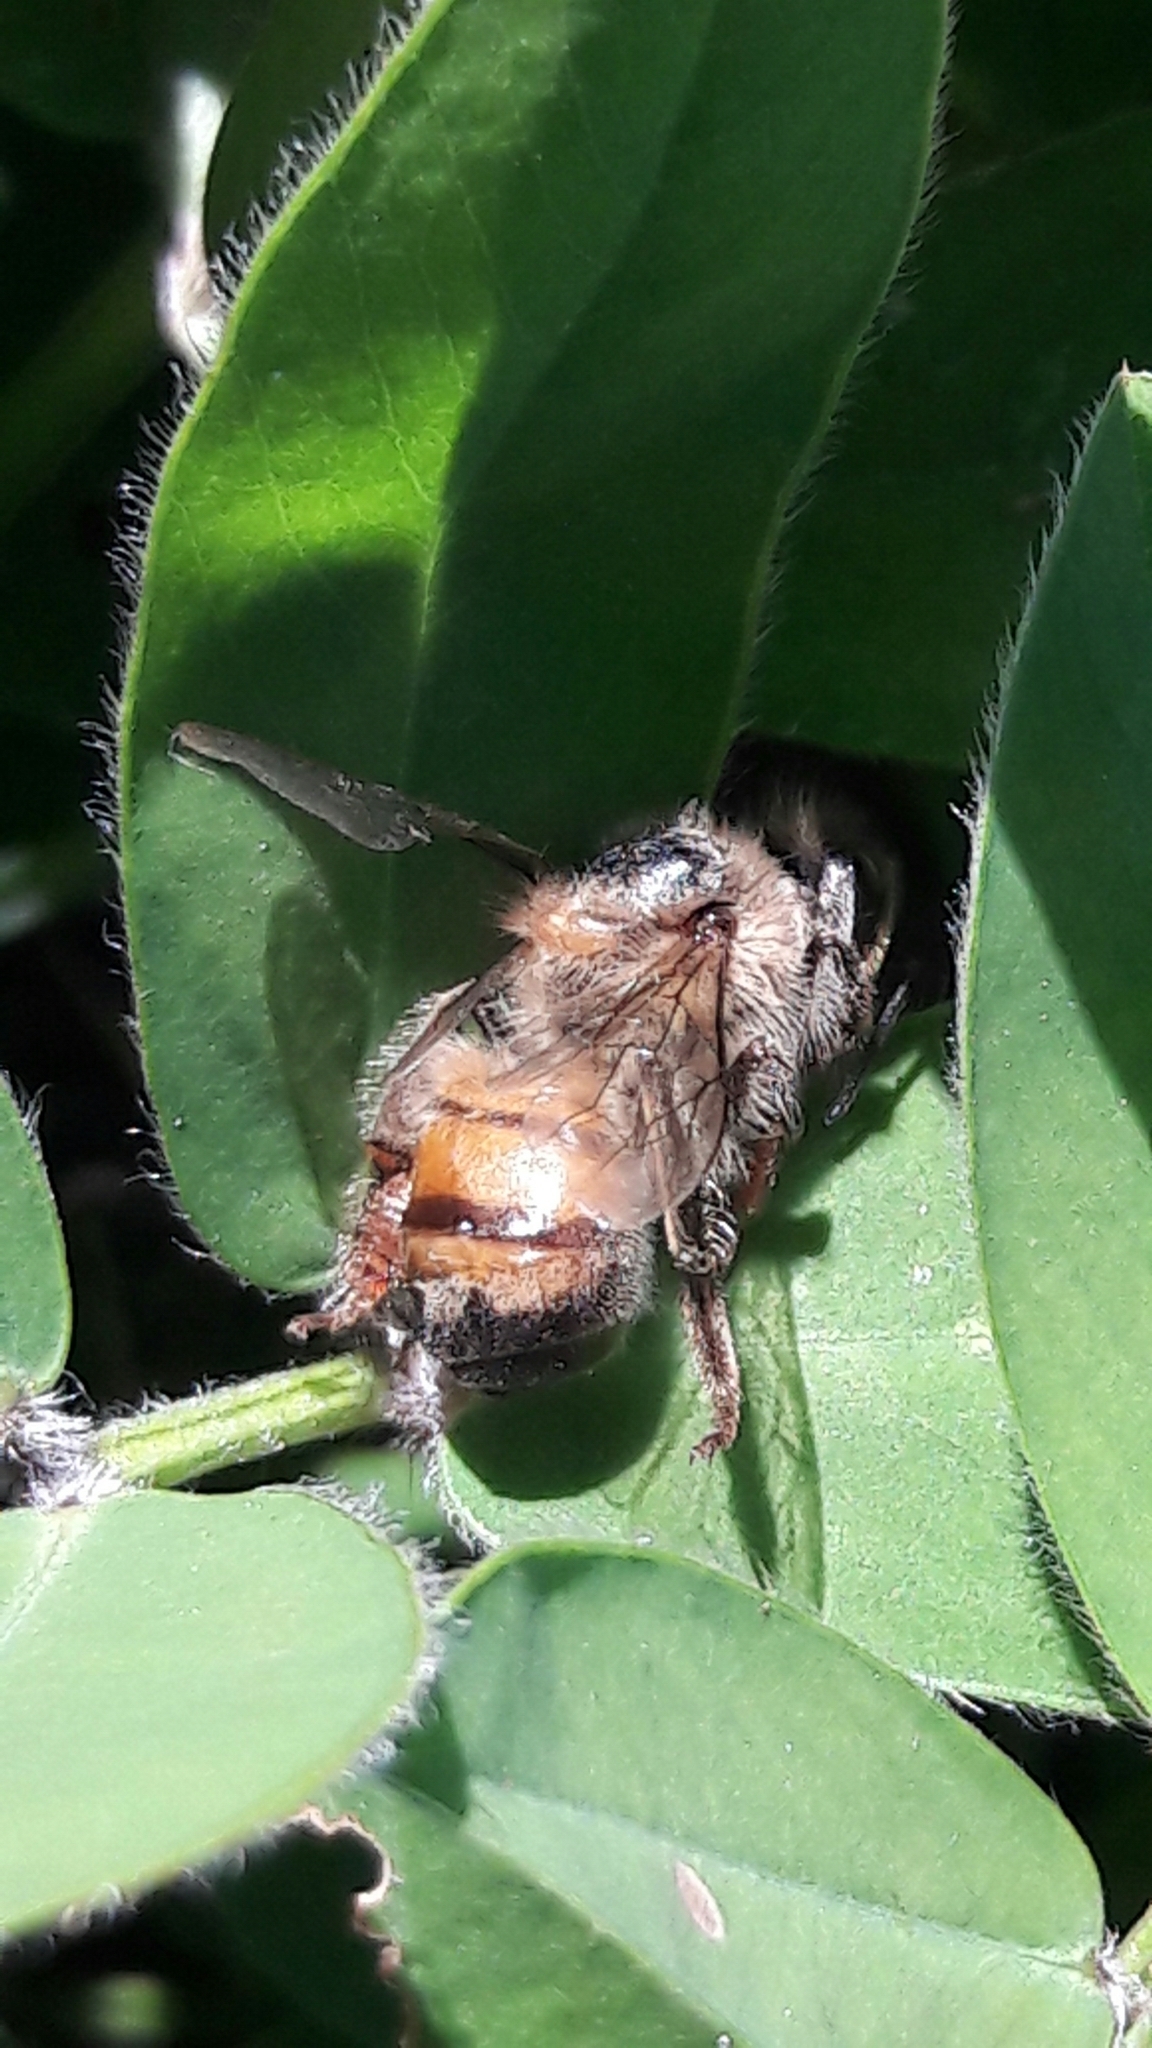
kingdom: Animalia
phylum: Arthropoda
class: Insecta
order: Hymenoptera
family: Apidae
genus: Apis
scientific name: Apis mellifera
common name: Honey bee
